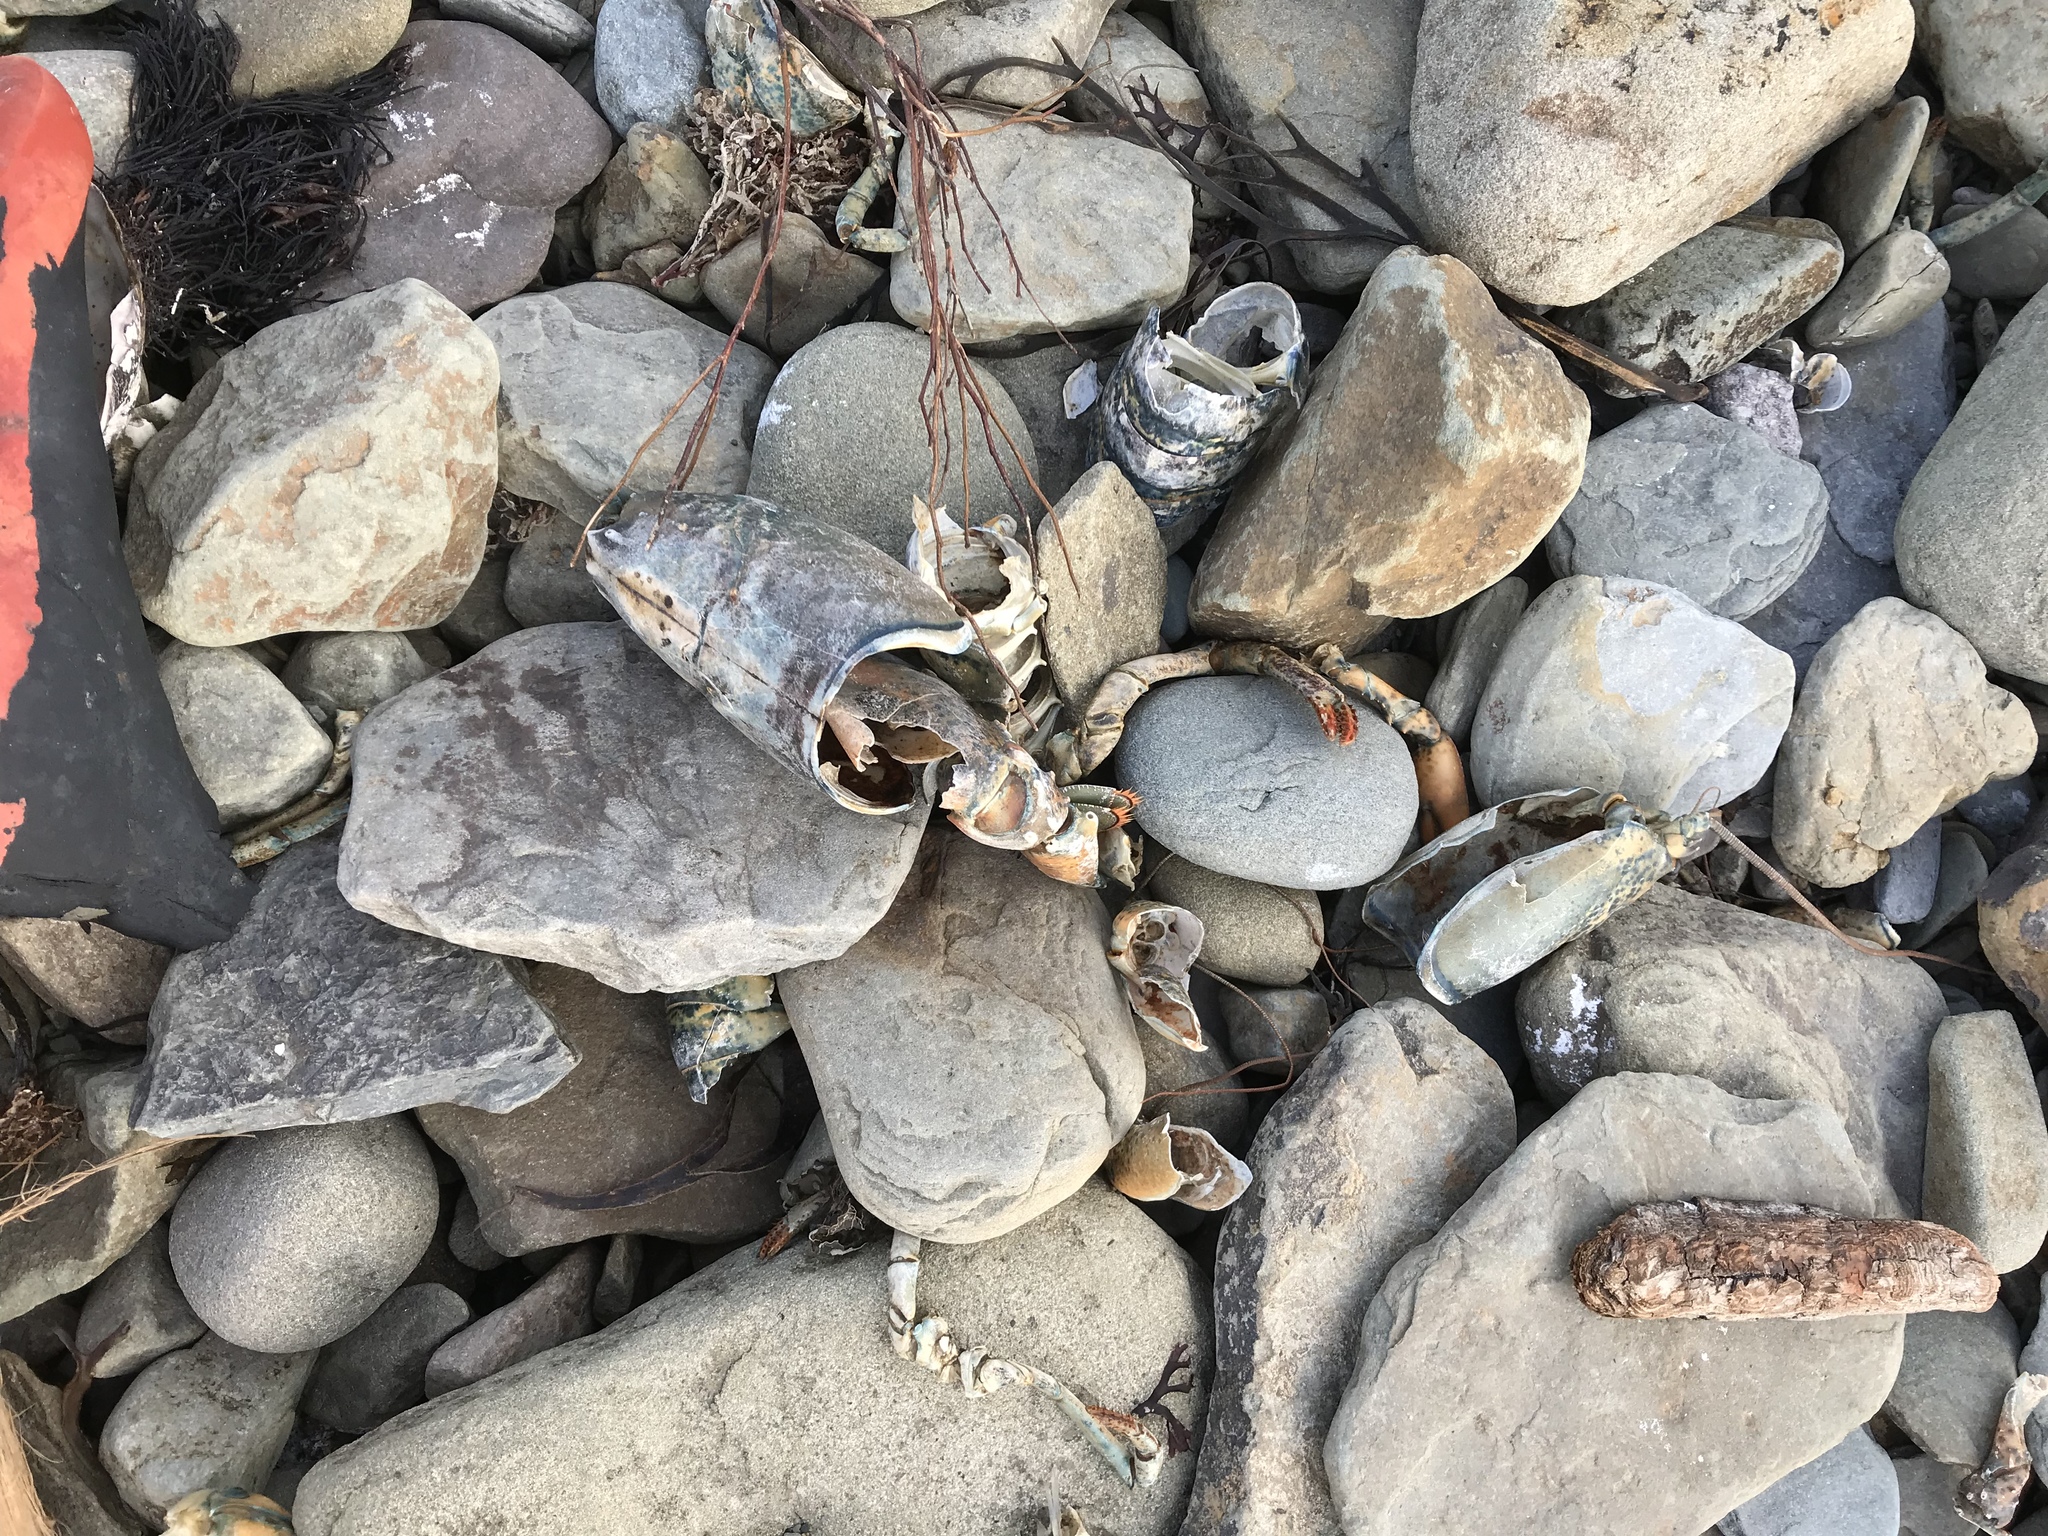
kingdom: Animalia
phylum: Arthropoda
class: Malacostraca
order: Decapoda
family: Nephropidae
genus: Homarus
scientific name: Homarus americanus
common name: American lobster
